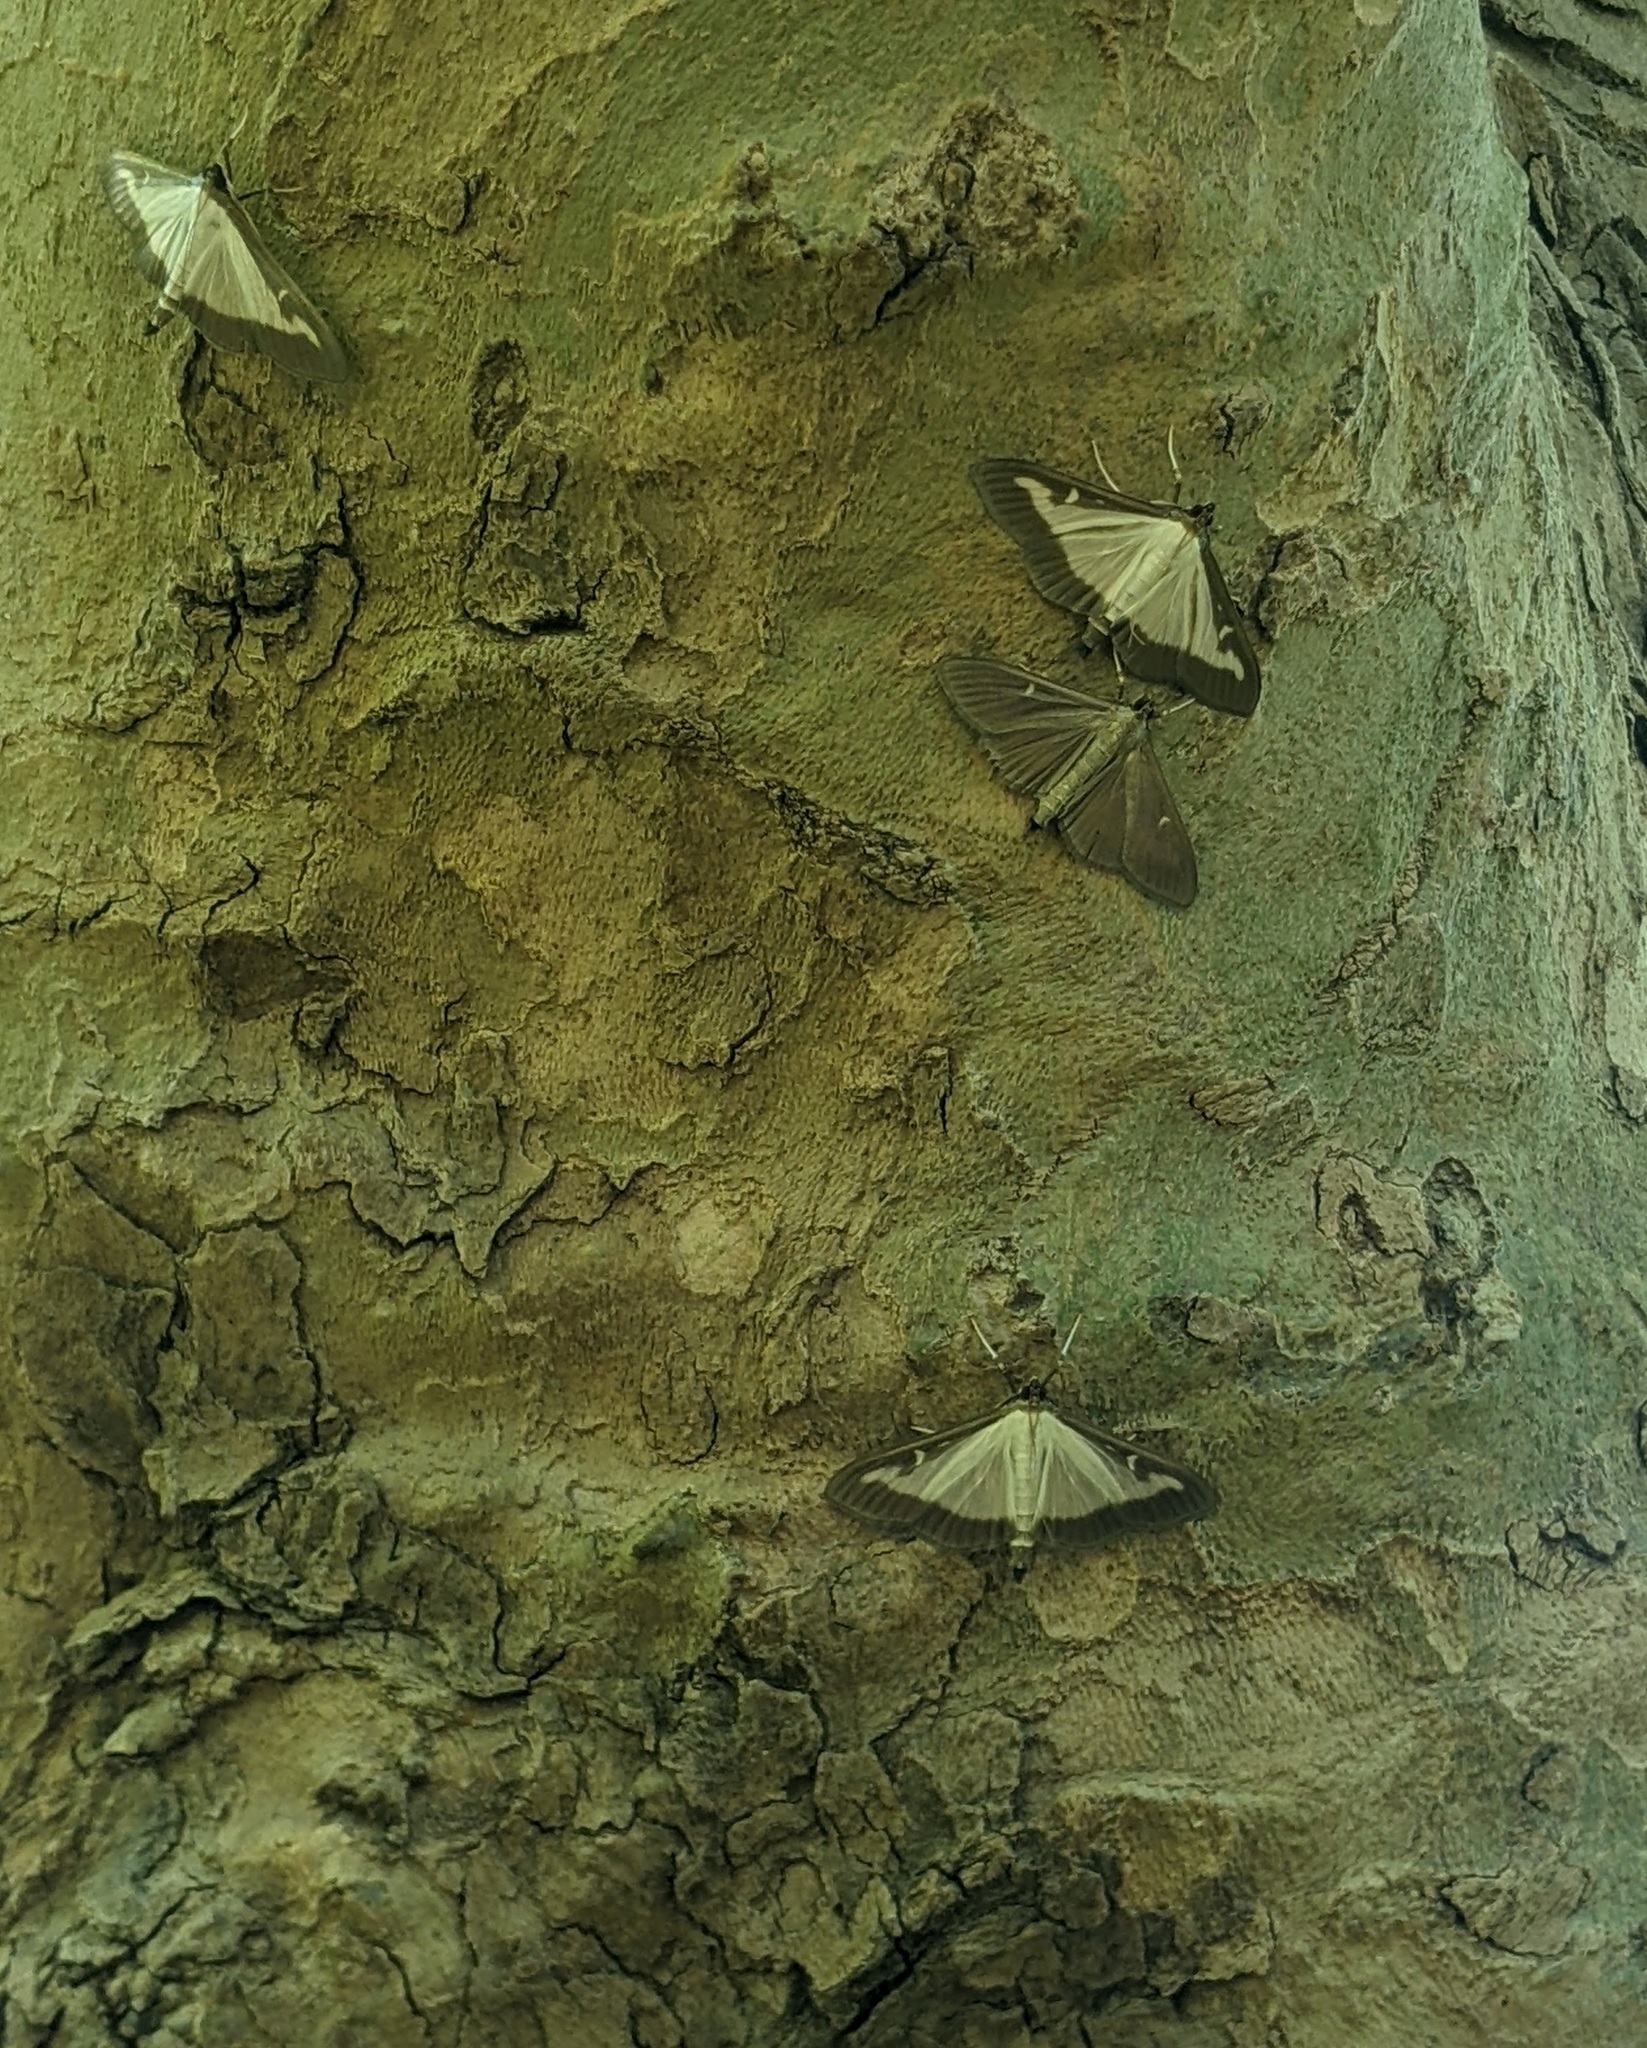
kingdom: Animalia
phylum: Arthropoda
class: Insecta
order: Lepidoptera
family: Crambidae
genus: Cydalima
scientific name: Cydalima perspectalis
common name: Box tree moth
